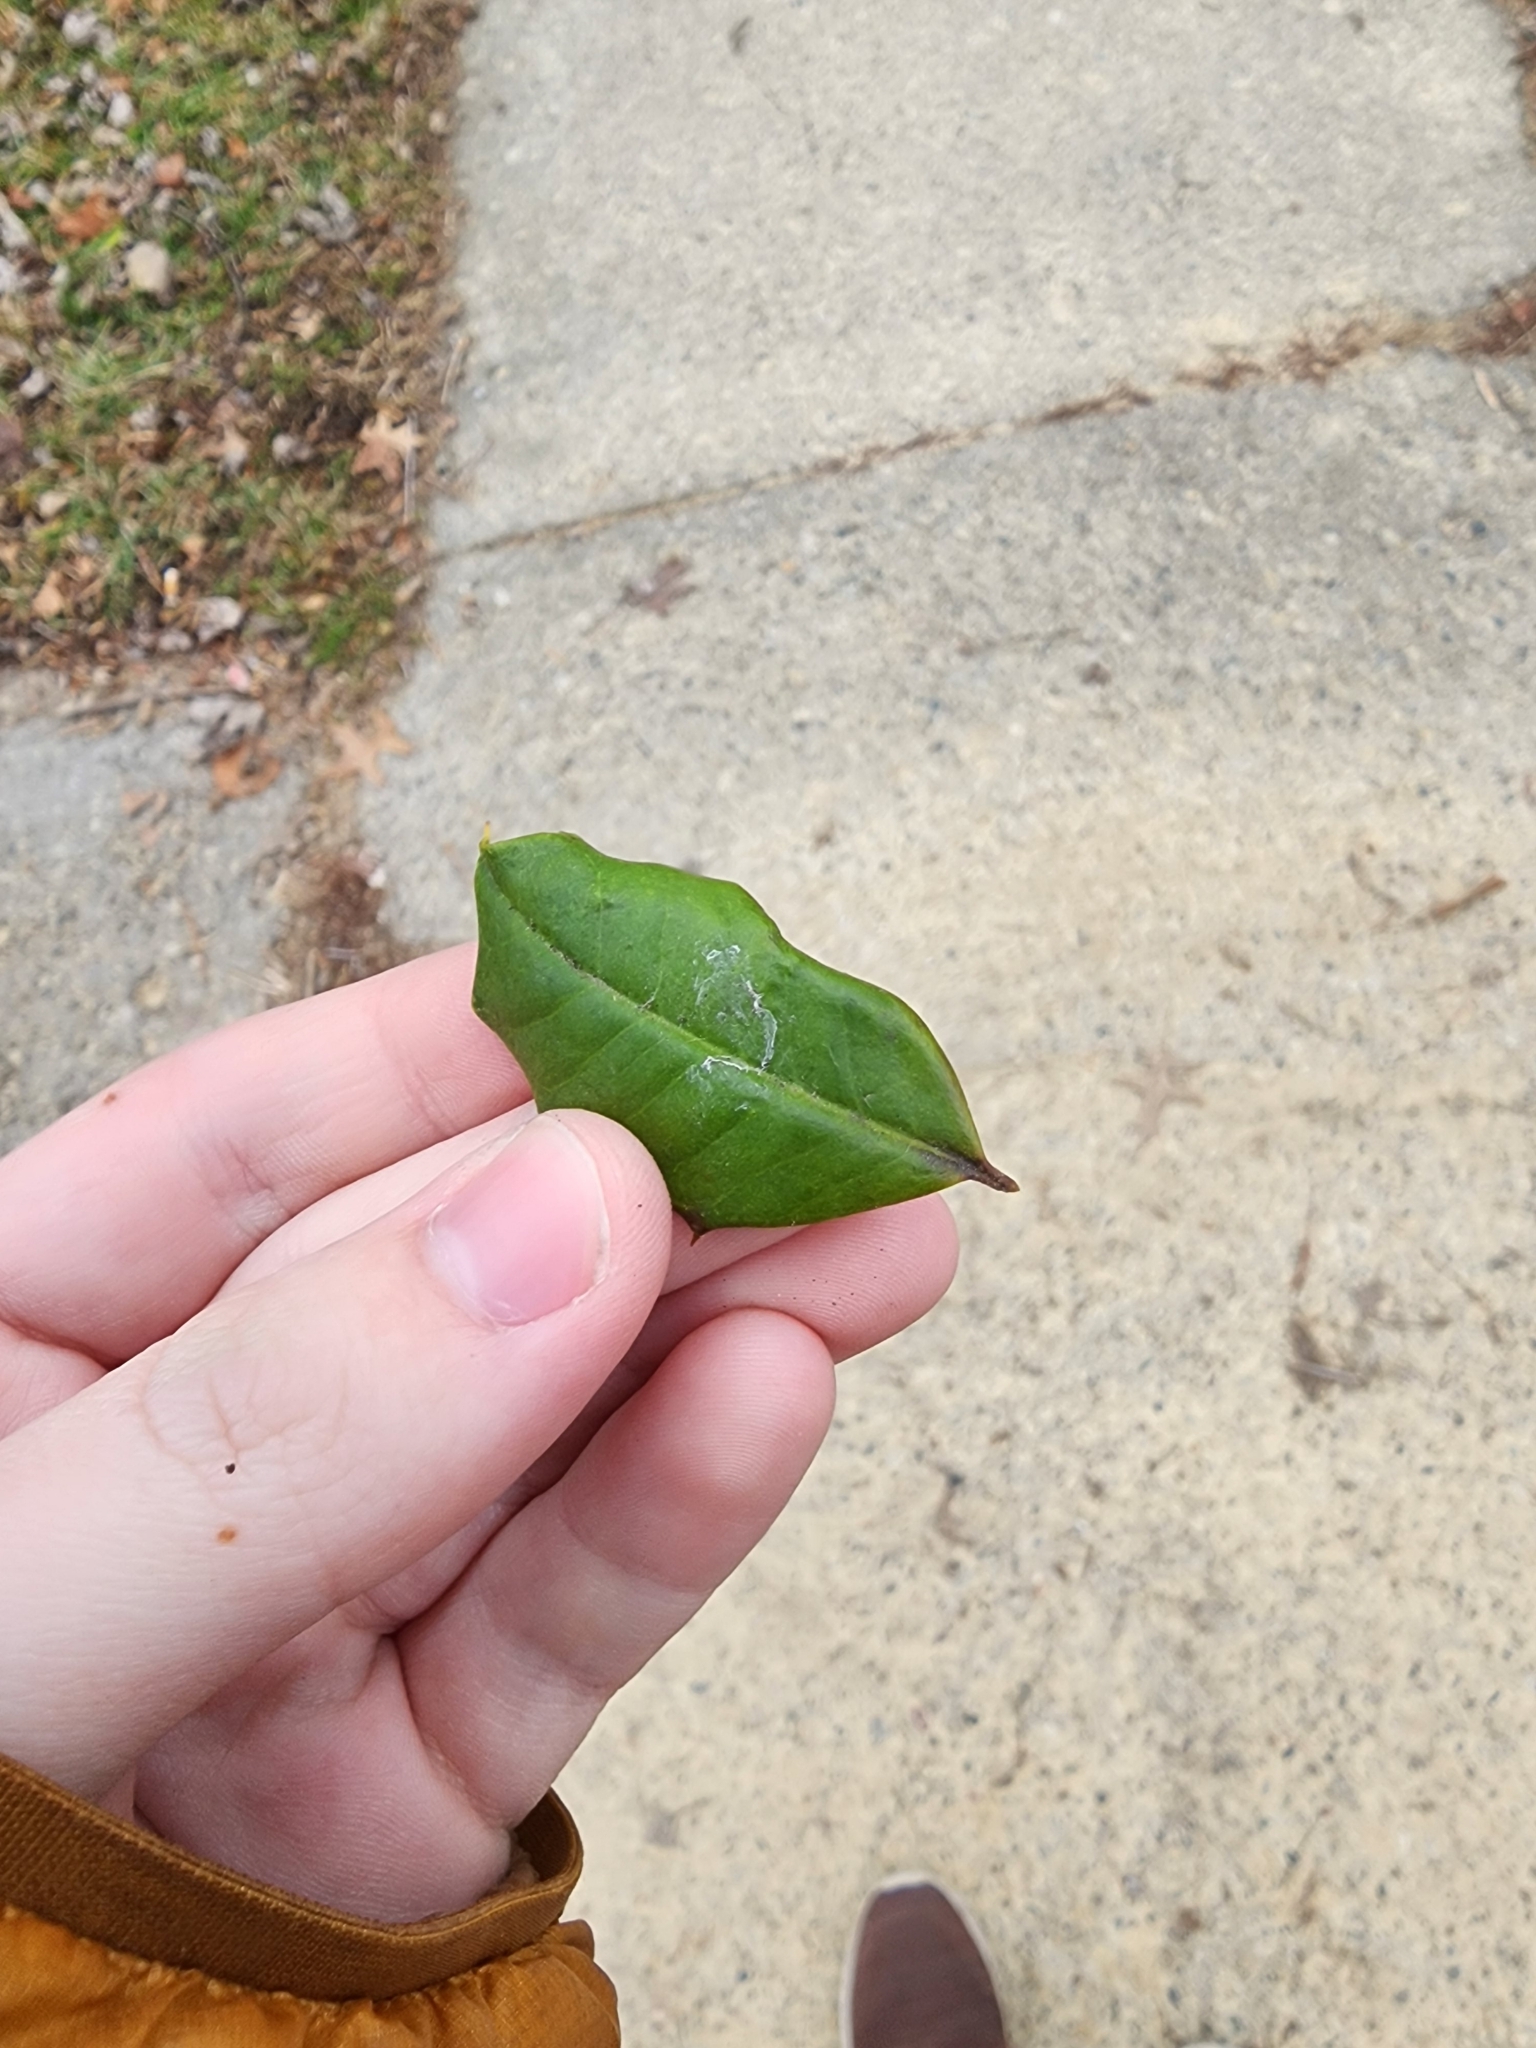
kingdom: Plantae
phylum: Tracheophyta
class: Magnoliopsida
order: Aquifoliales
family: Aquifoliaceae
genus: Ilex
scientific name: Ilex opaca
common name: American holly
